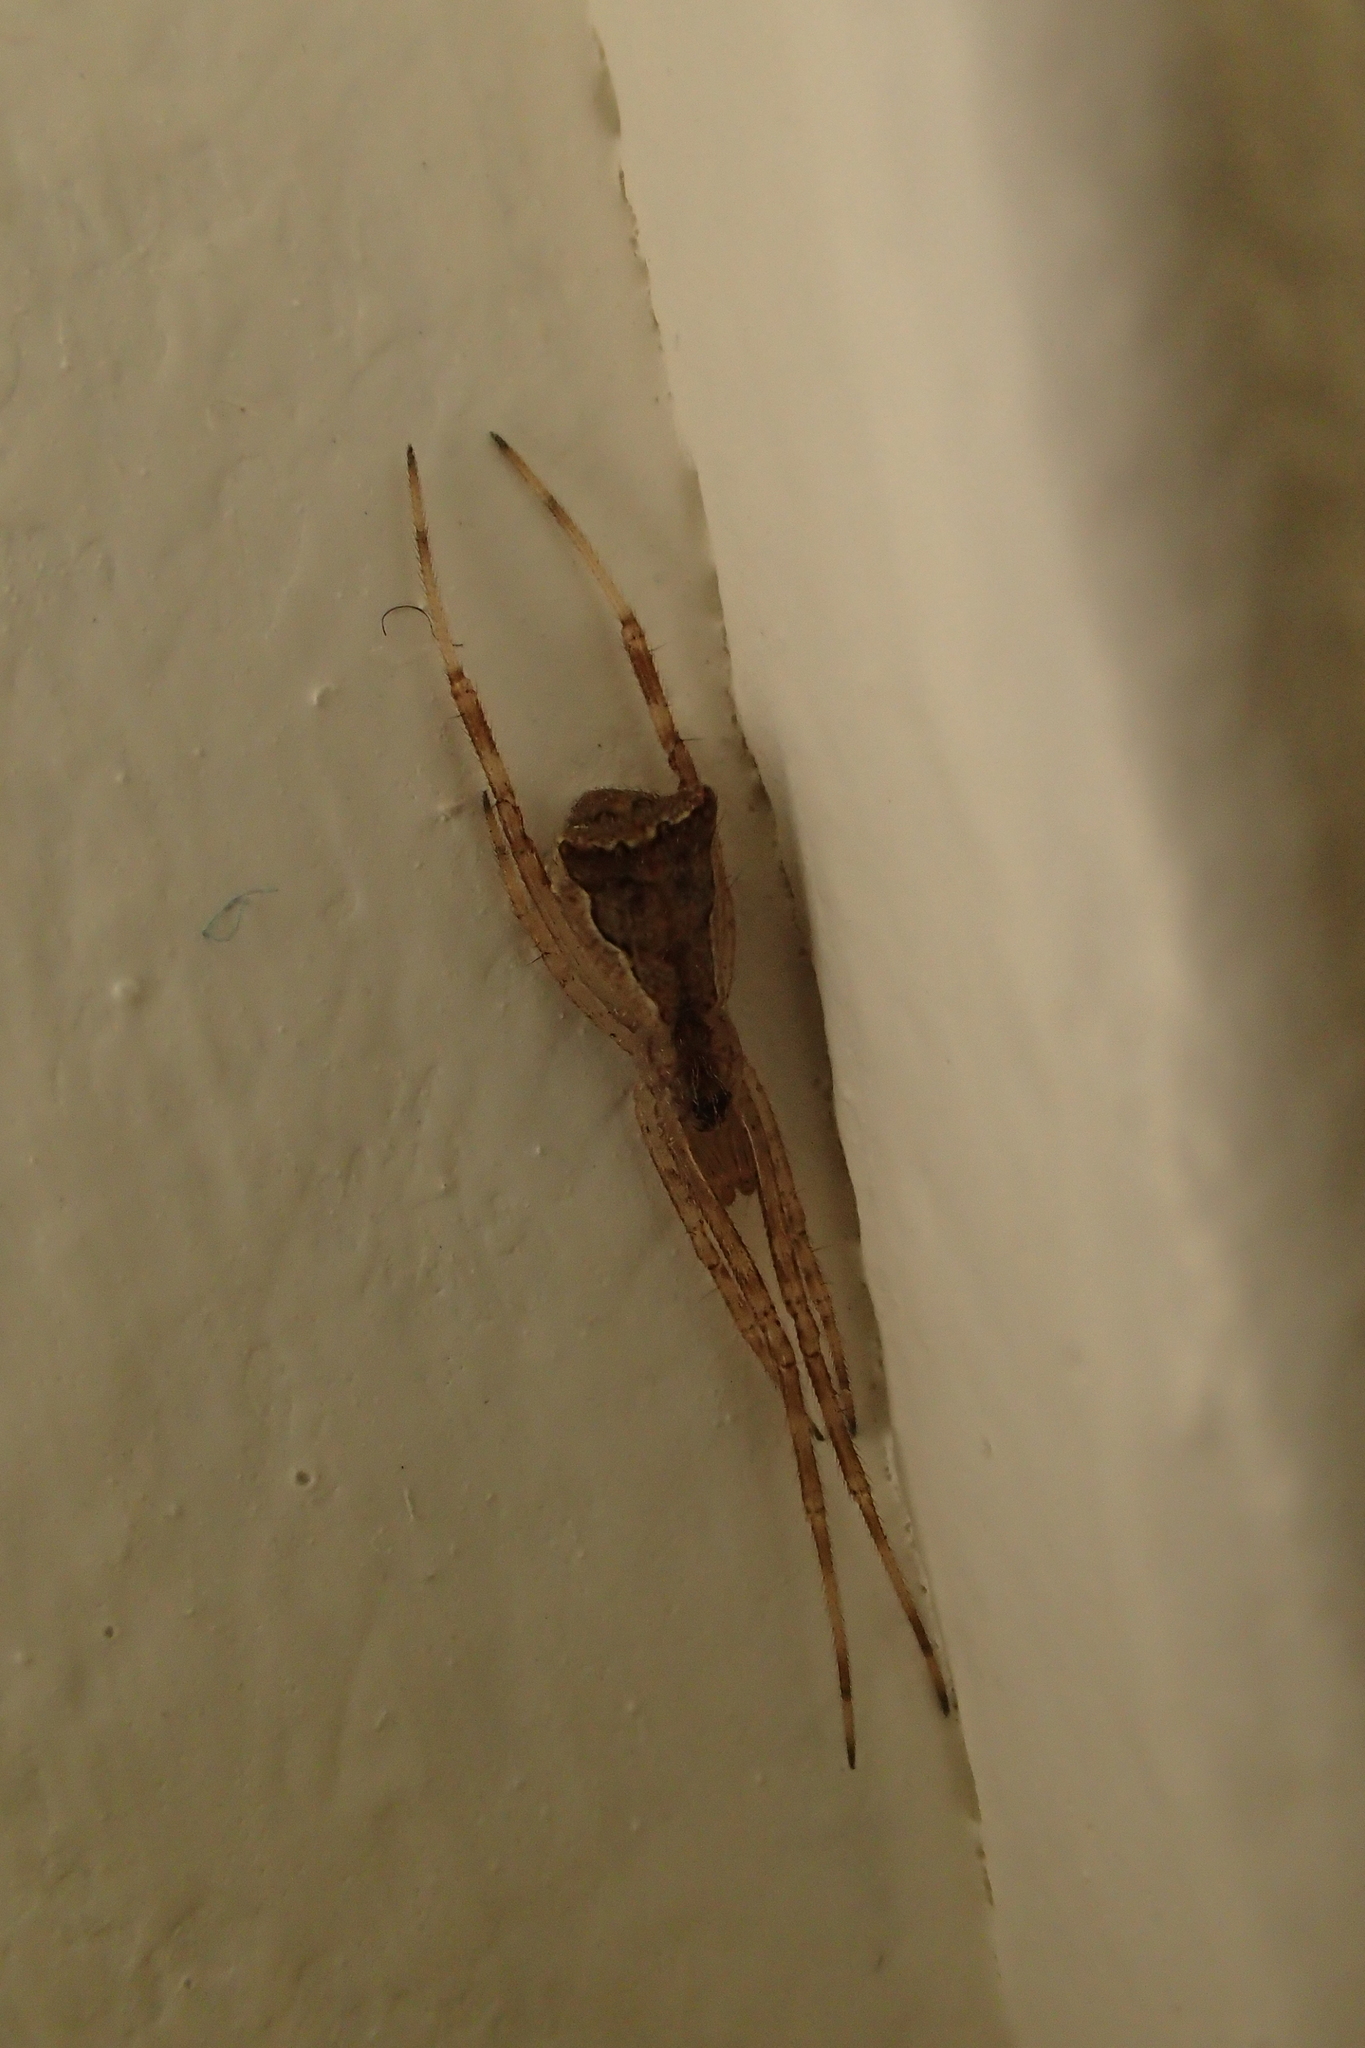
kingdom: Animalia
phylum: Arthropoda
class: Arachnida
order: Araneae
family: Theridiidae
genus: Episinus
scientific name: Episinus maculipes
